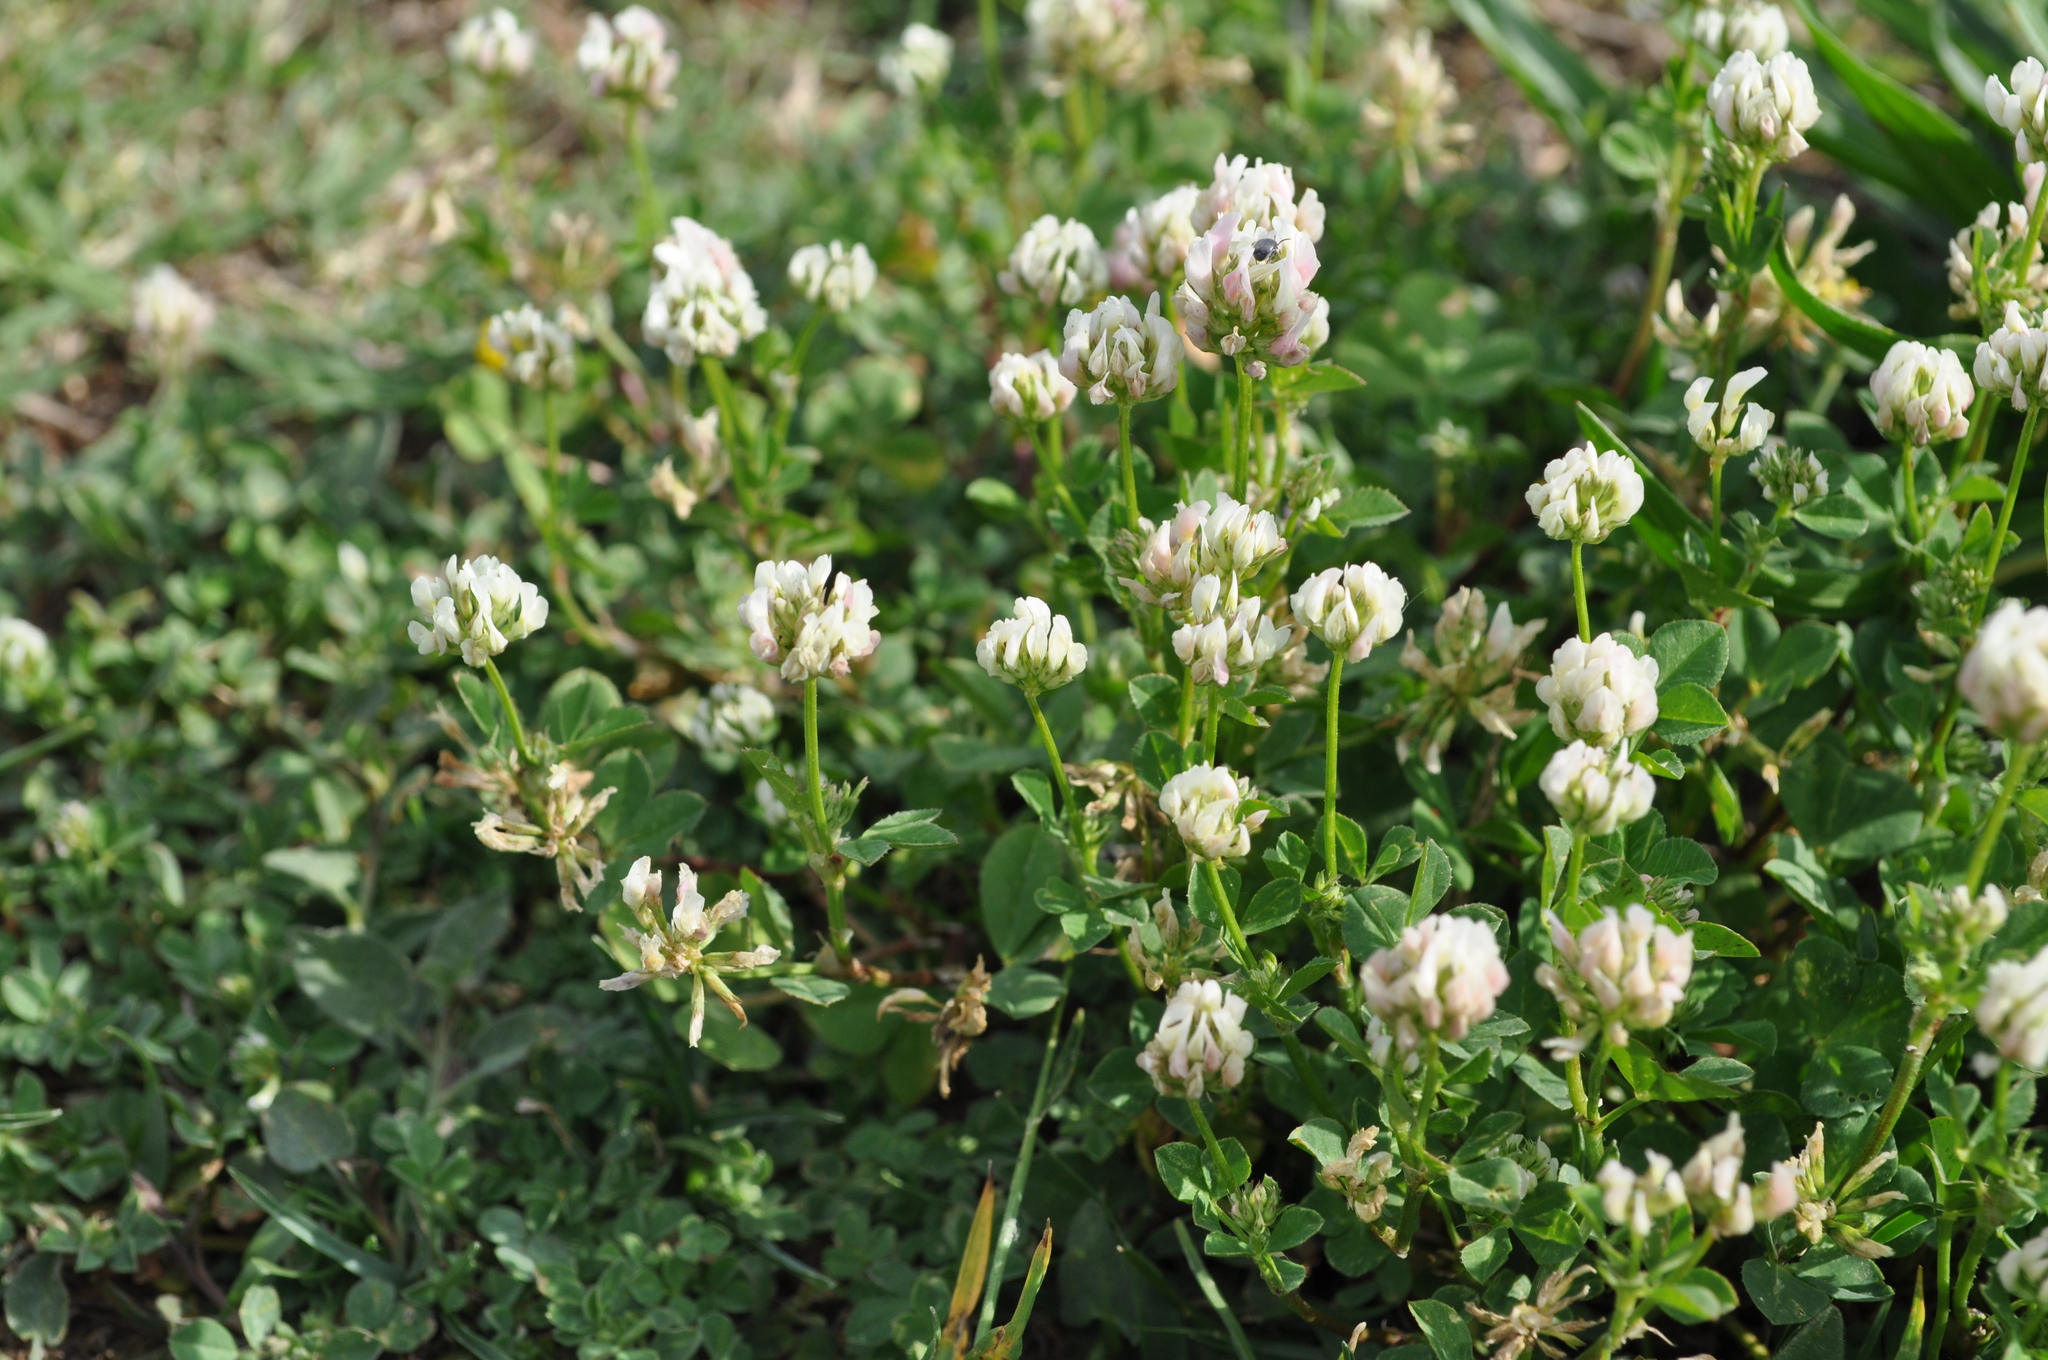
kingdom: Plantae
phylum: Tracheophyta
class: Magnoliopsida
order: Fabales
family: Fabaceae
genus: Trifolium
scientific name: Trifolium nigrescens
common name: Small white clover
